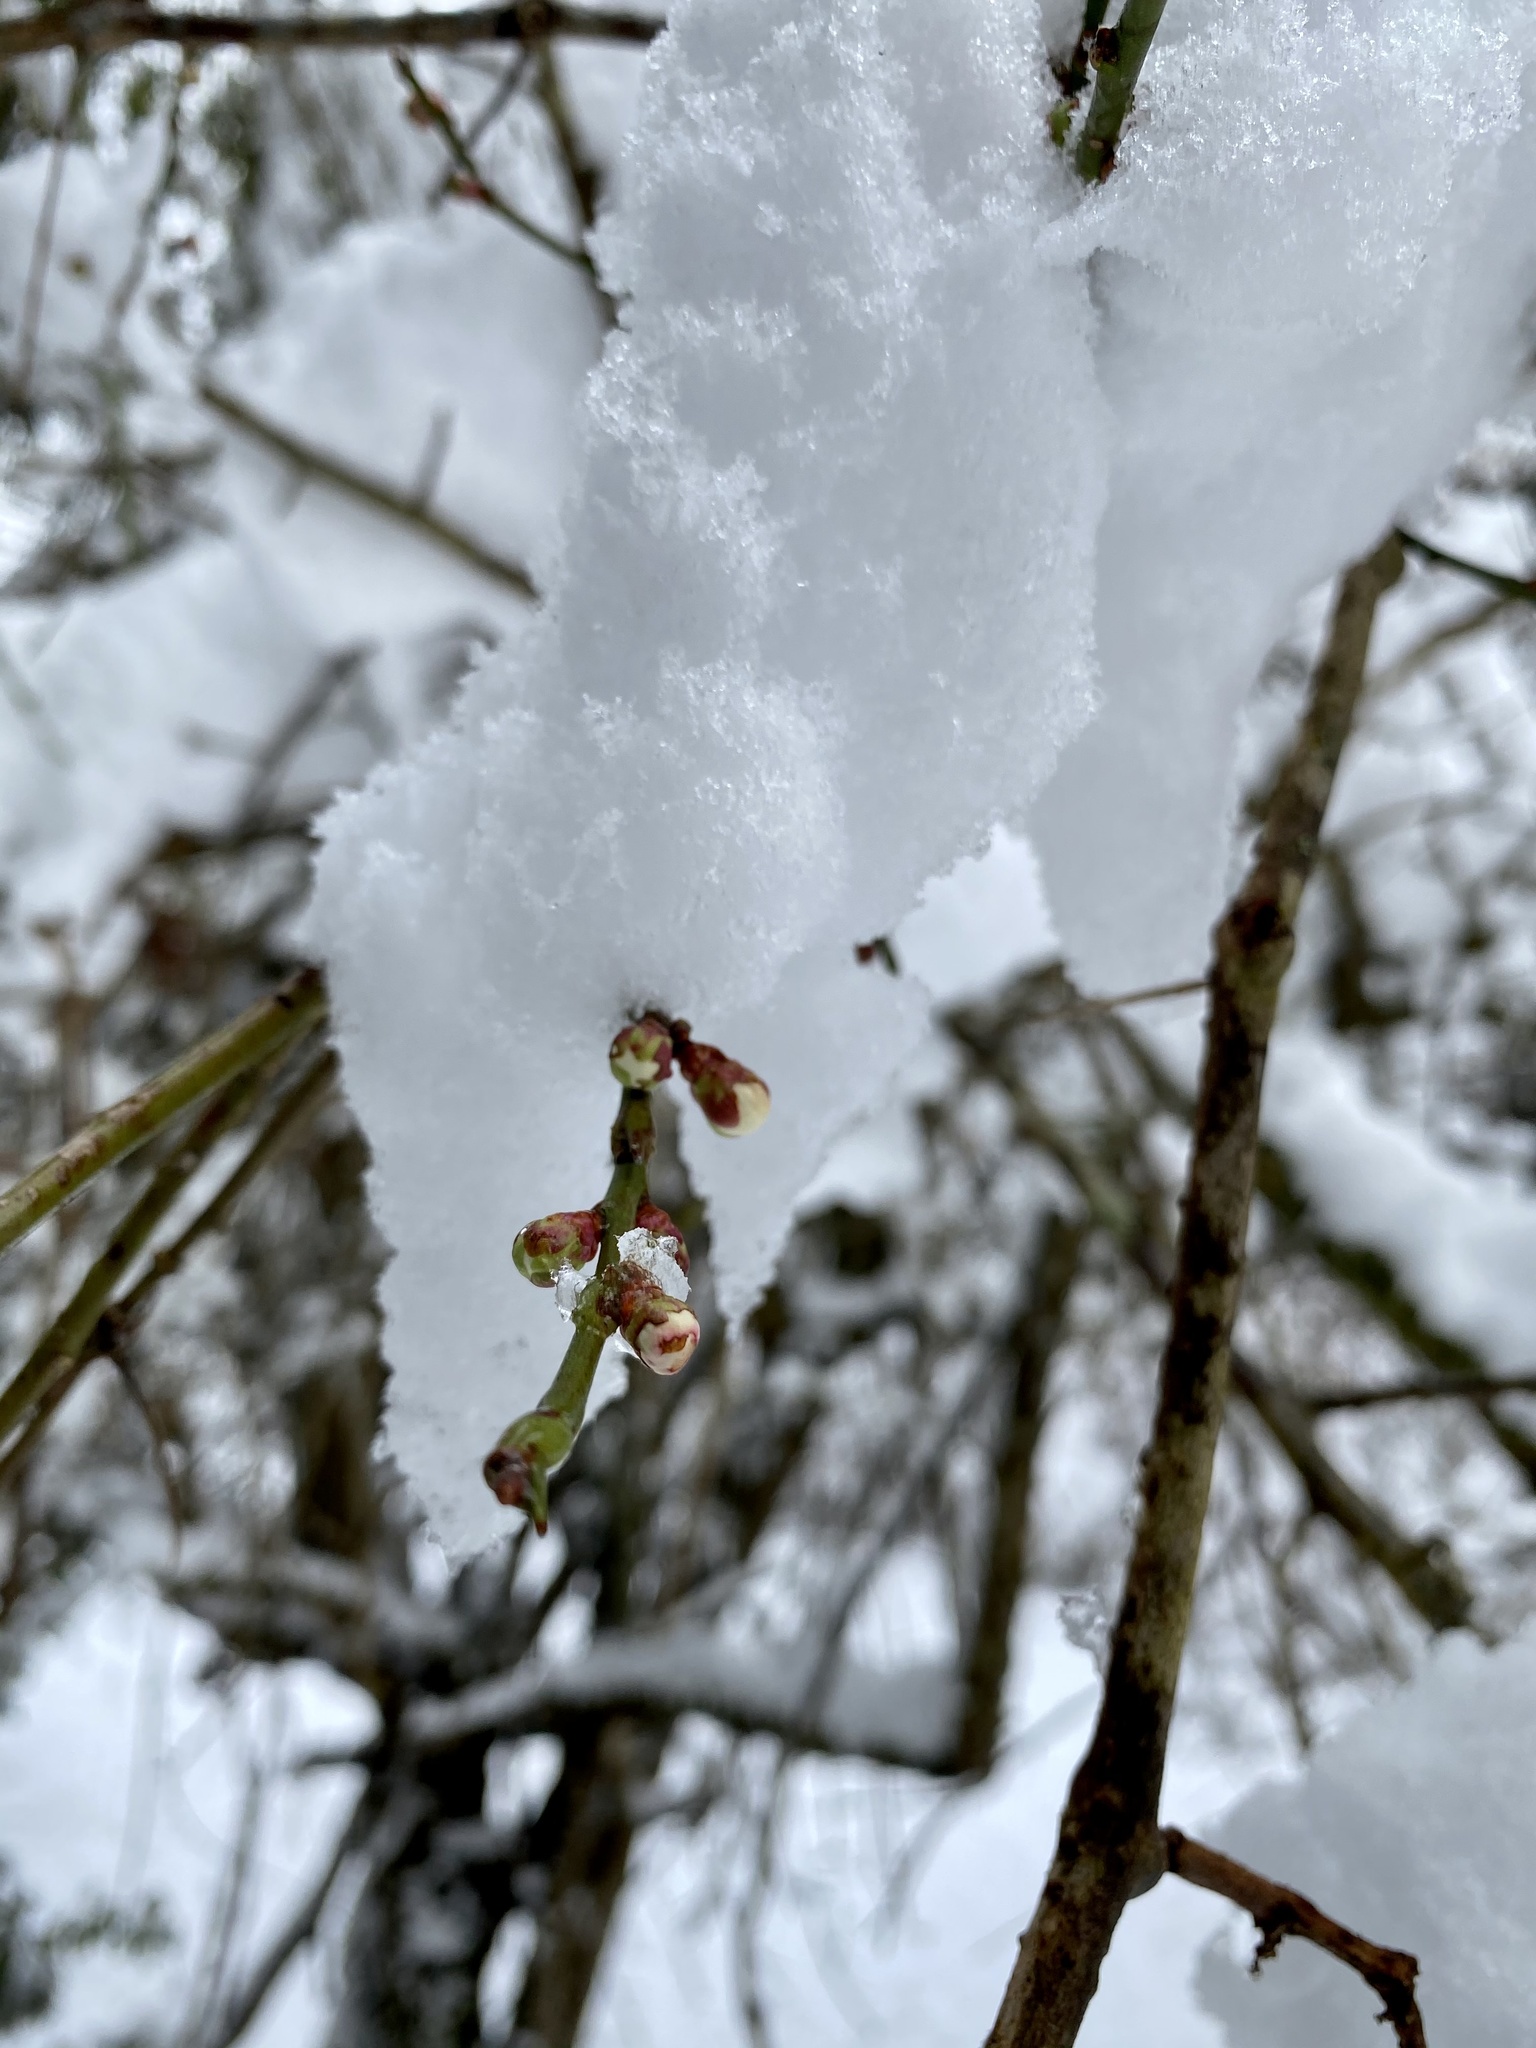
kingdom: Plantae
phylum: Tracheophyta
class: Magnoliopsida
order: Rosales
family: Rosaceae
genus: Prunus
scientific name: Prunus mume
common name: Japanese apricot
